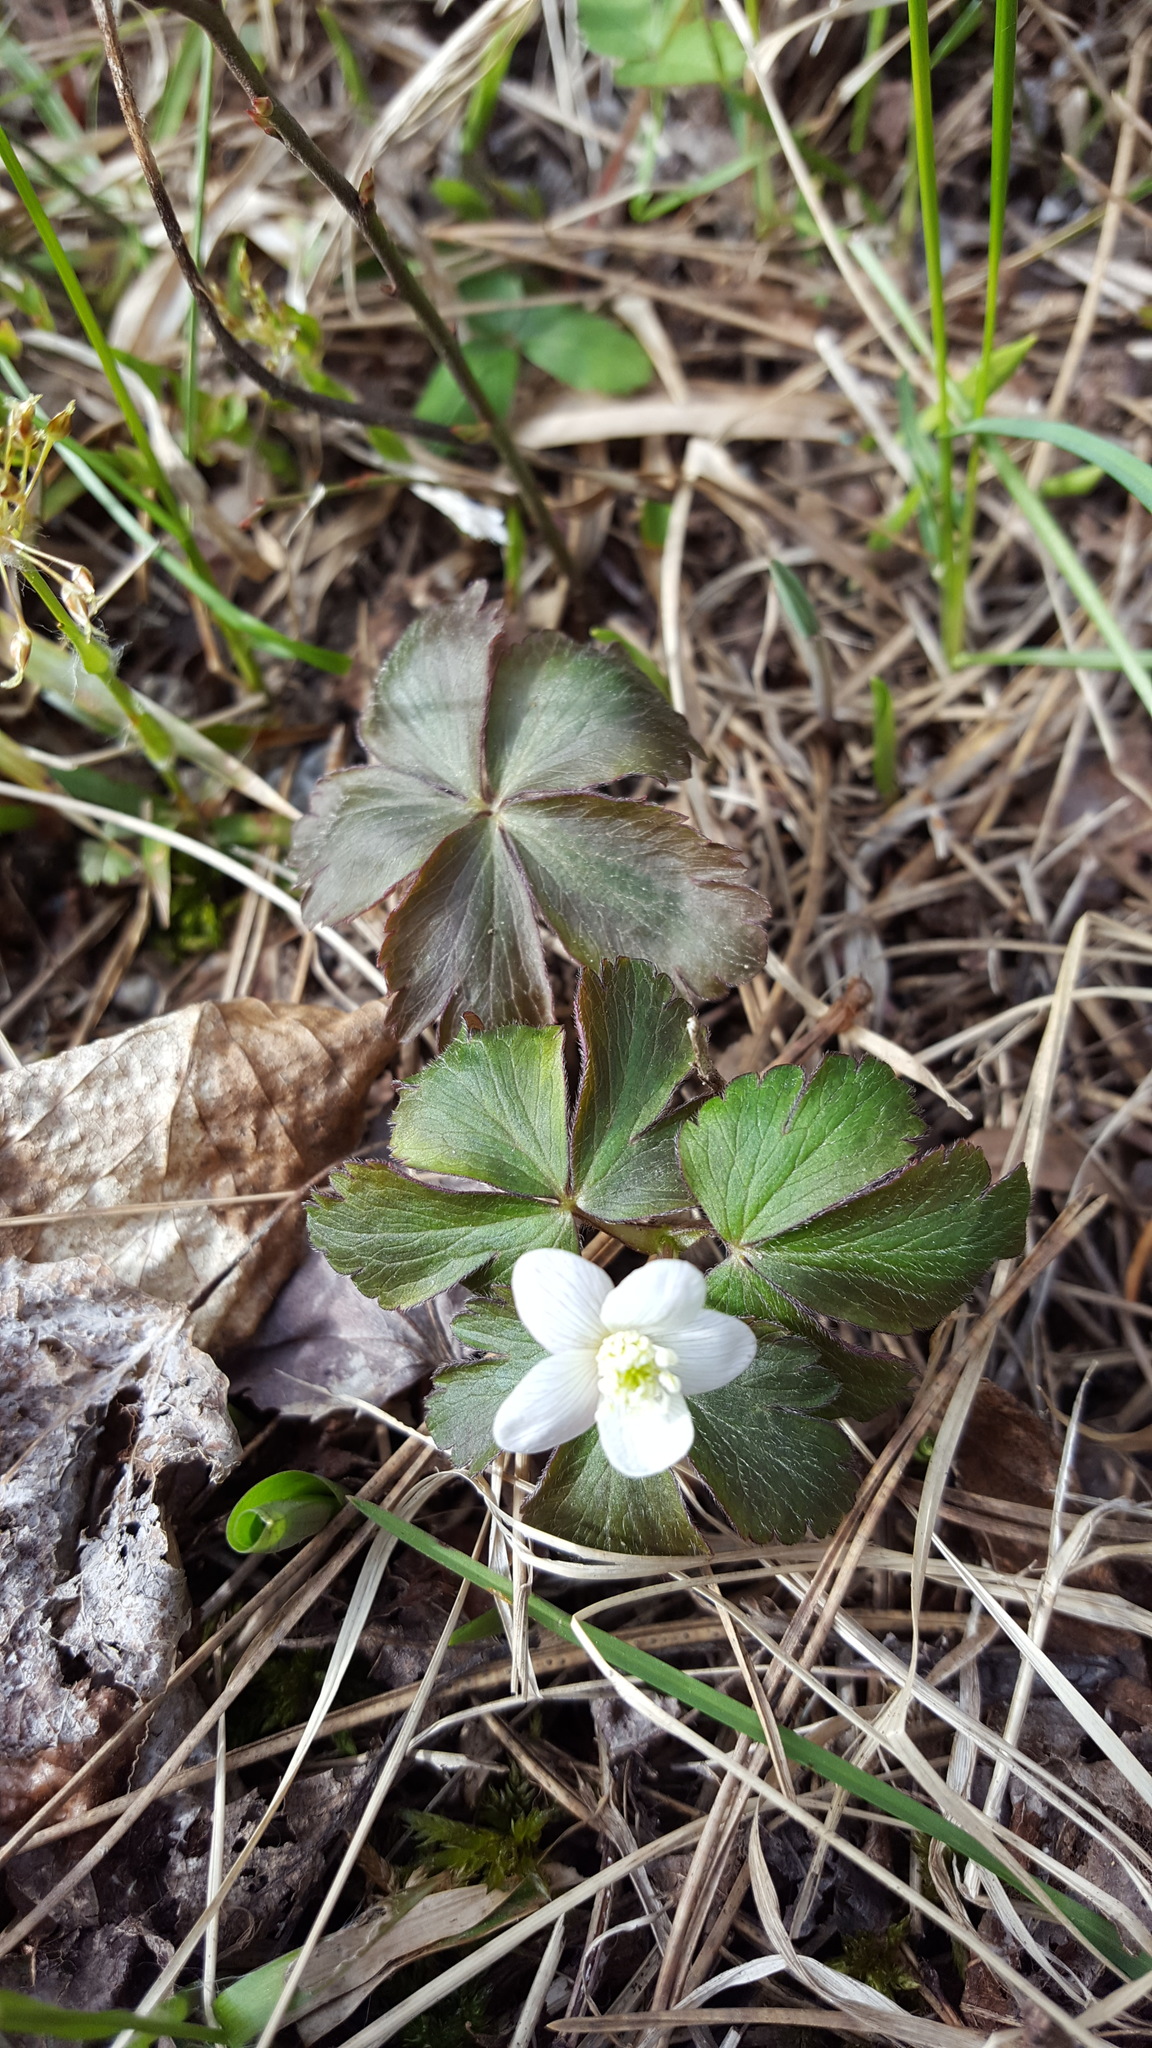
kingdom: Plantae
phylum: Tracheophyta
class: Magnoliopsida
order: Ranunculales
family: Ranunculaceae
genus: Anemone
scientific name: Anemone quinquefolia
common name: Wood anemone
